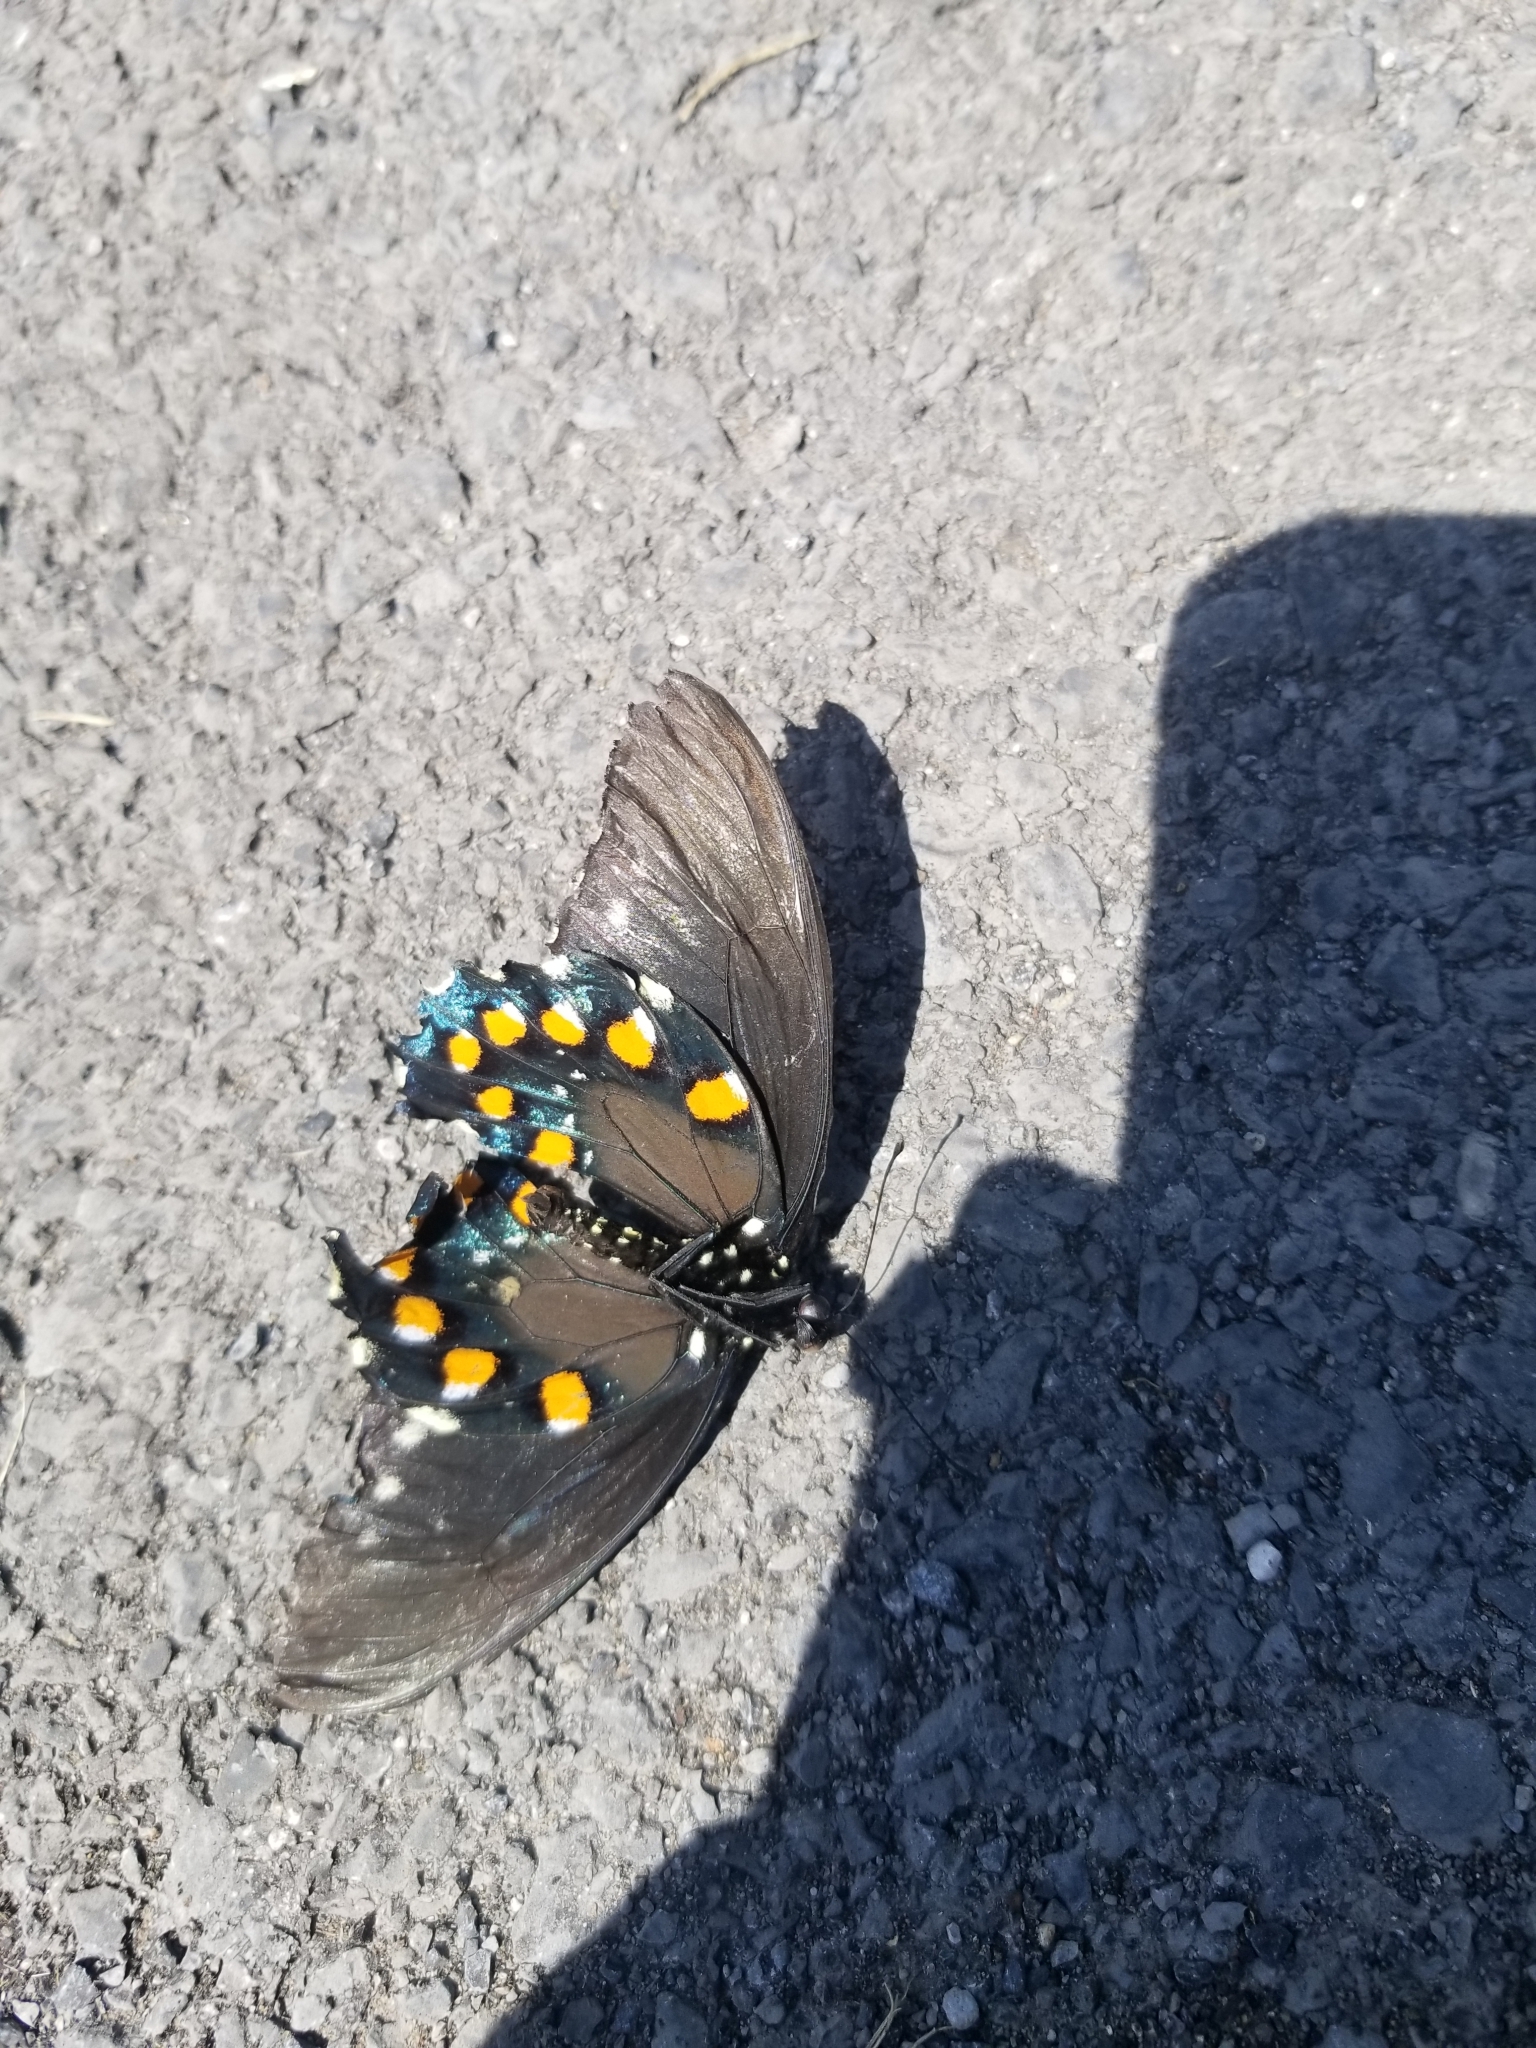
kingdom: Animalia
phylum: Arthropoda
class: Insecta
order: Lepidoptera
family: Papilionidae
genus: Battus
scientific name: Battus philenor
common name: Pipevine swallowtail
